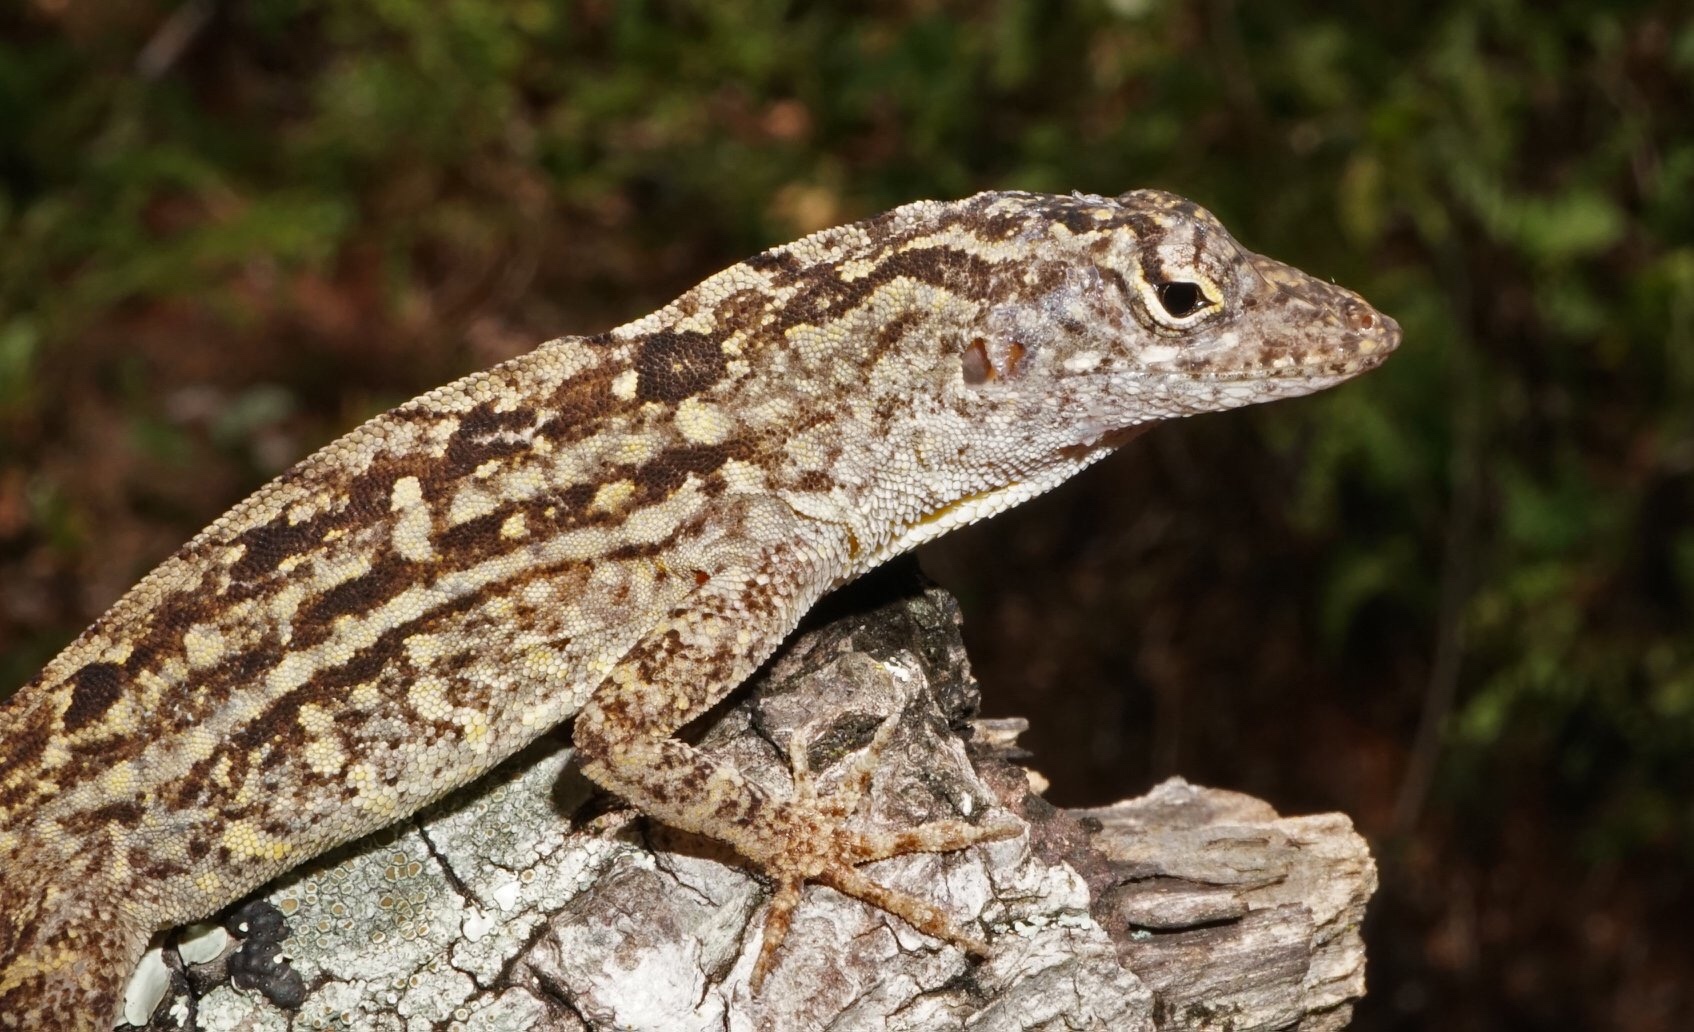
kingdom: Animalia
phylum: Chordata
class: Squamata
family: Dactyloidae
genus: Anolis
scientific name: Anolis sagrei
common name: Brown anole
